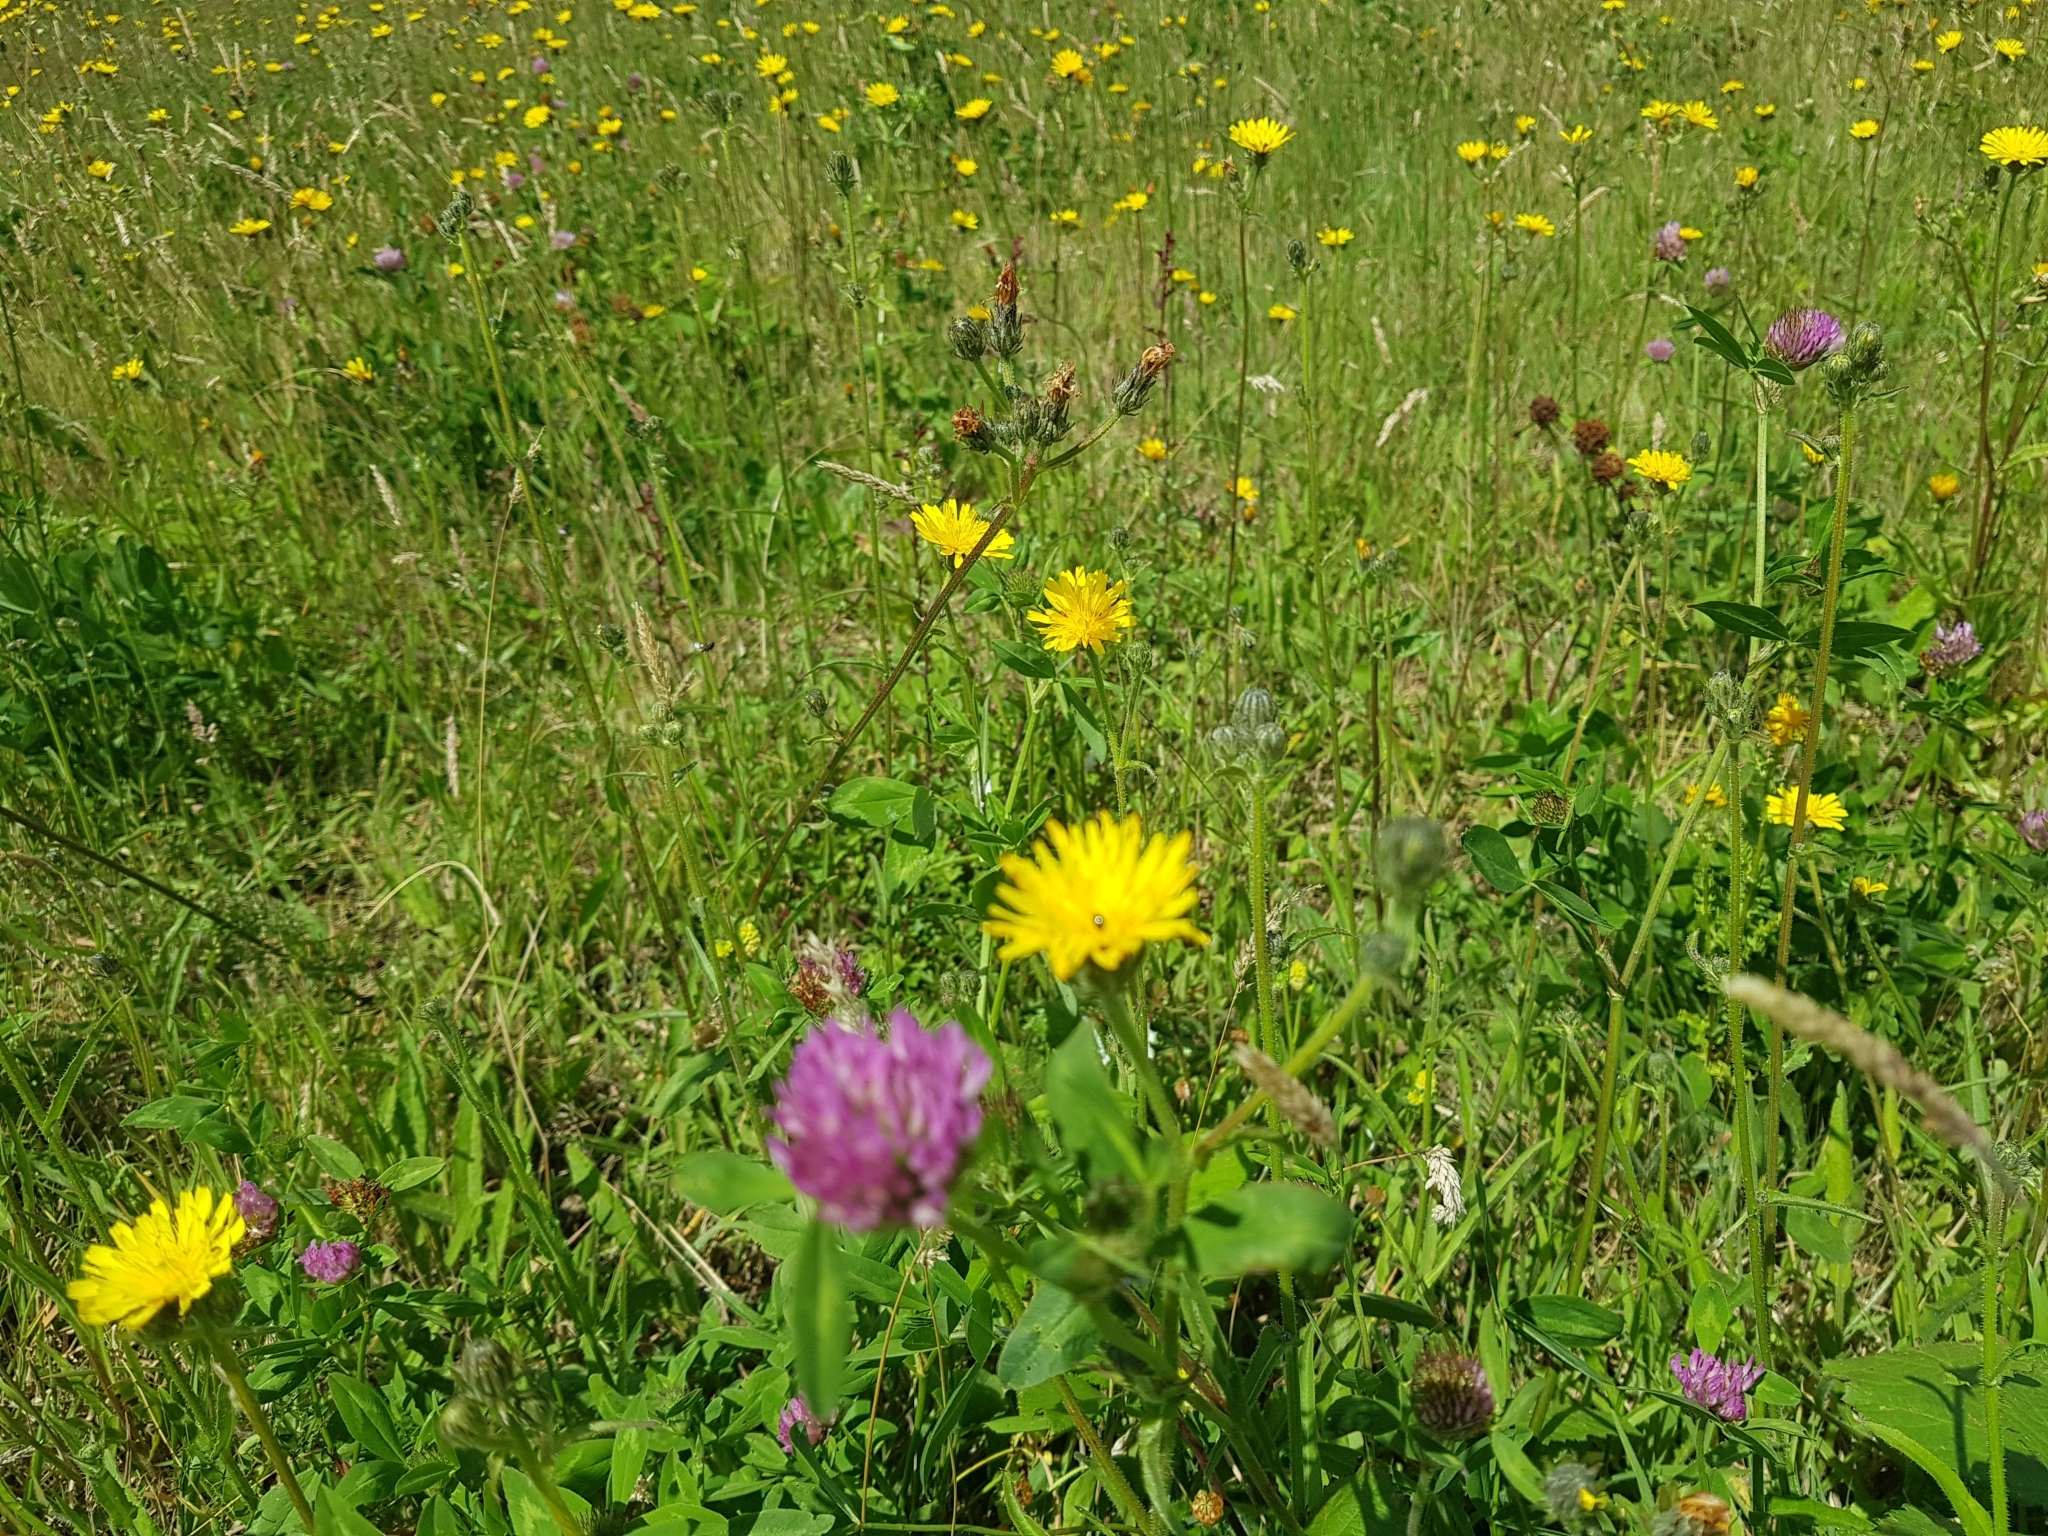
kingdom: Plantae
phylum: Tracheophyta
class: Magnoliopsida
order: Fabales
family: Fabaceae
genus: Trifolium
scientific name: Trifolium pratense
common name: Red clover
